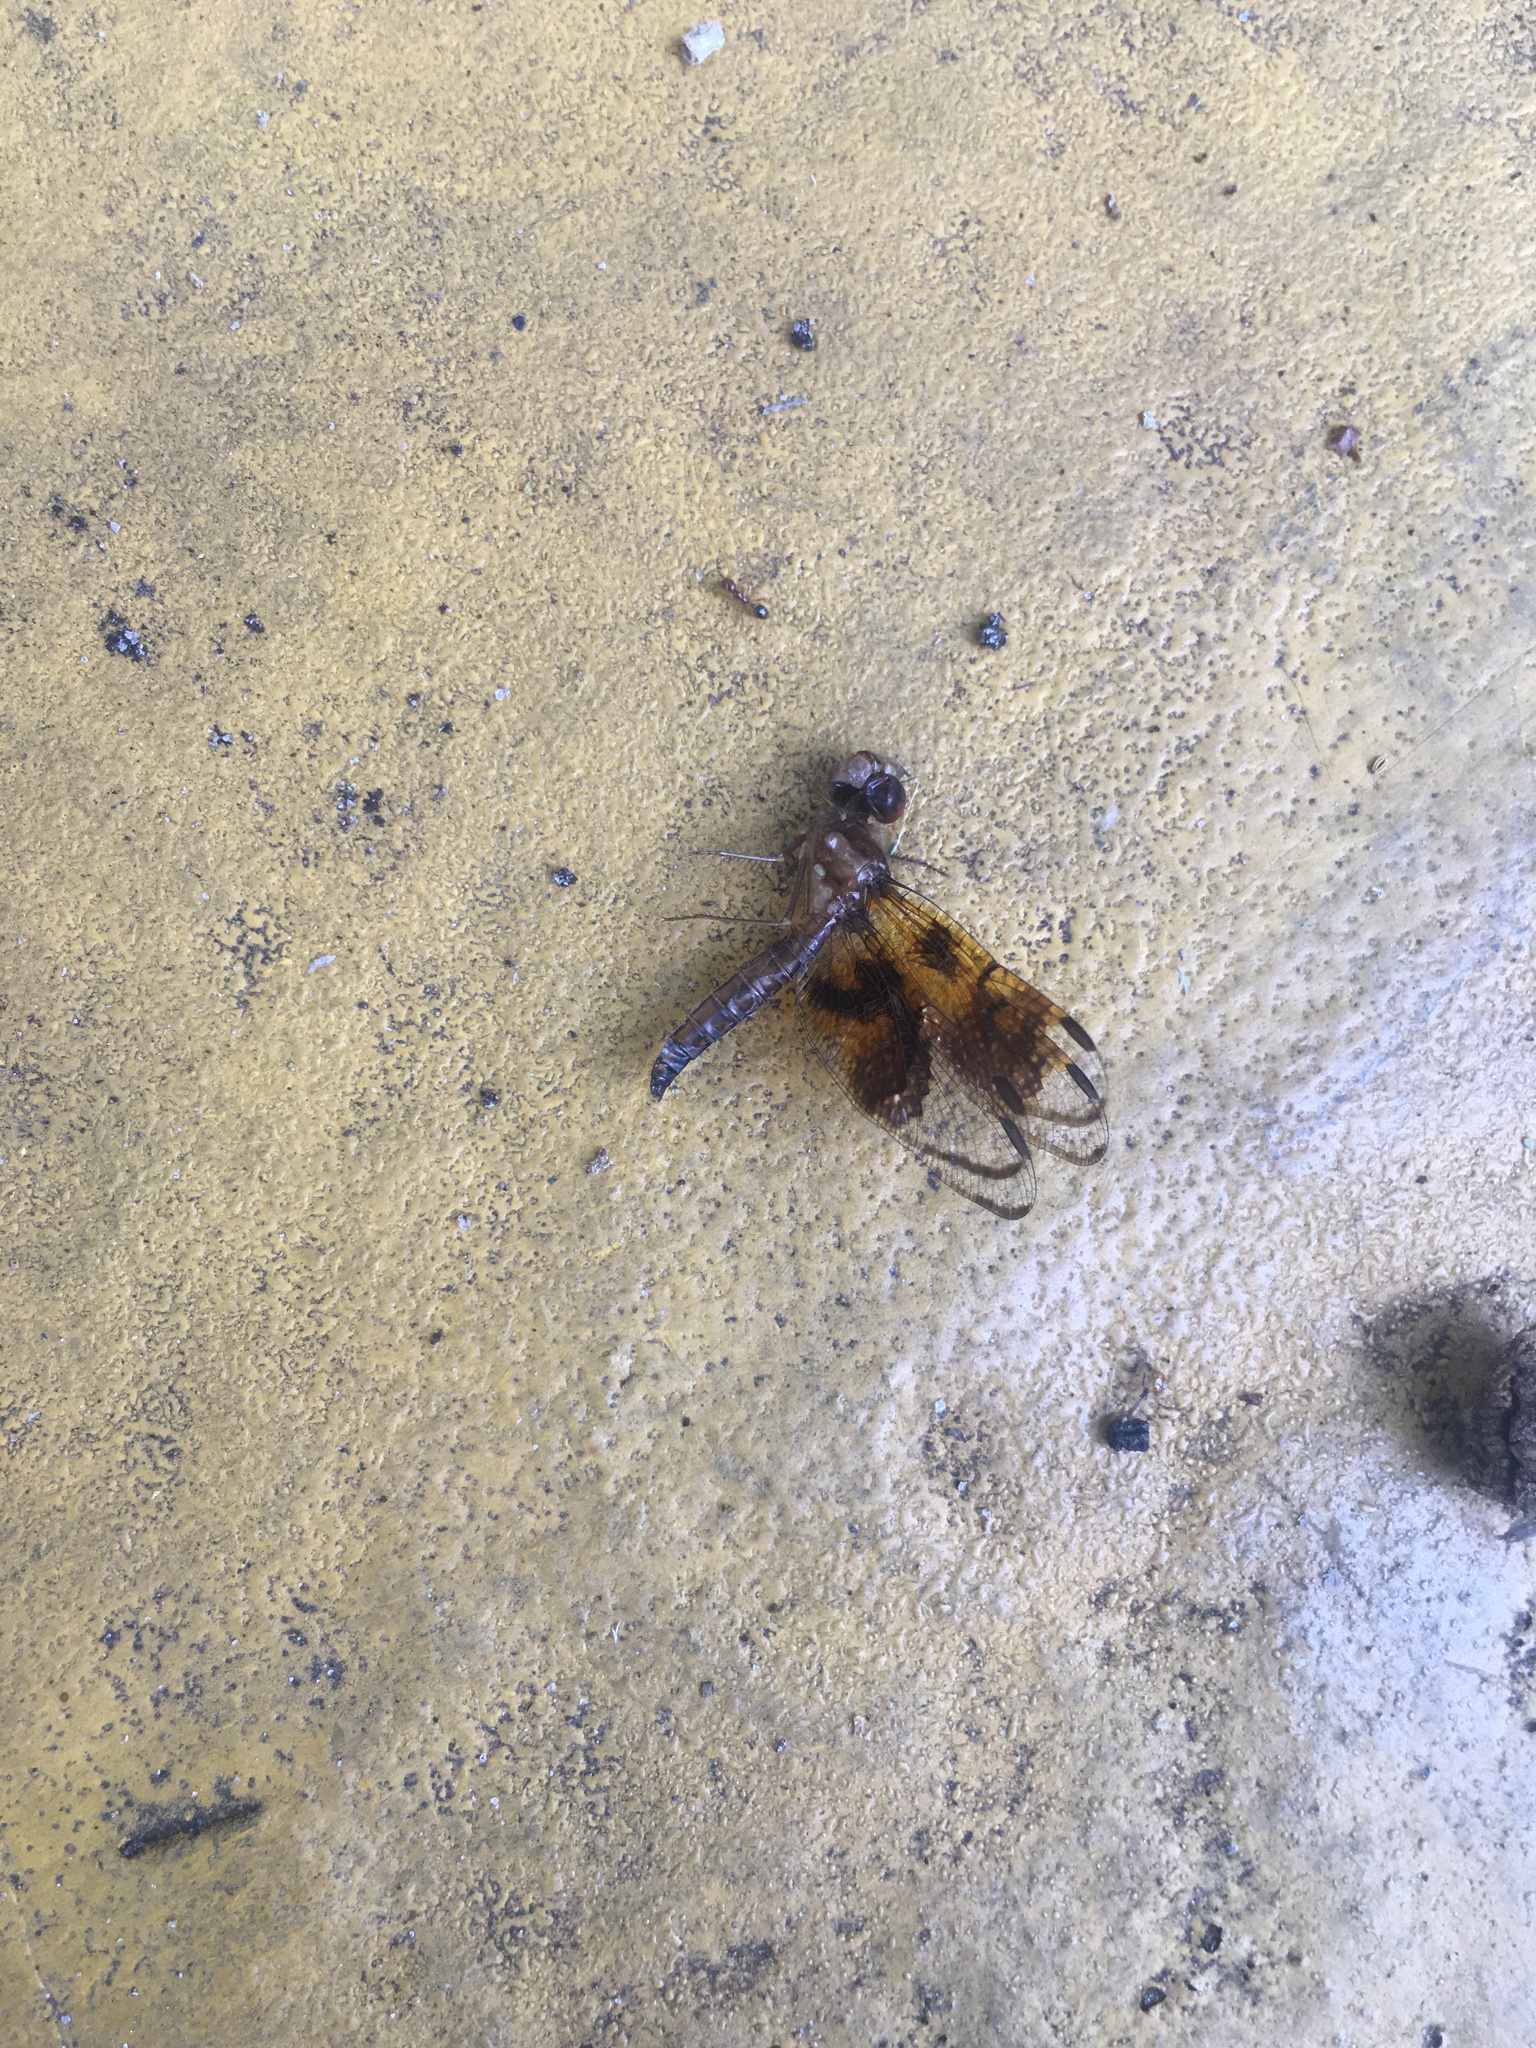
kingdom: Animalia
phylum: Arthropoda
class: Insecta
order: Odonata
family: Libellulidae
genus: Perithemis
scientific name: Perithemis tenera
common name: Eastern amberwing
